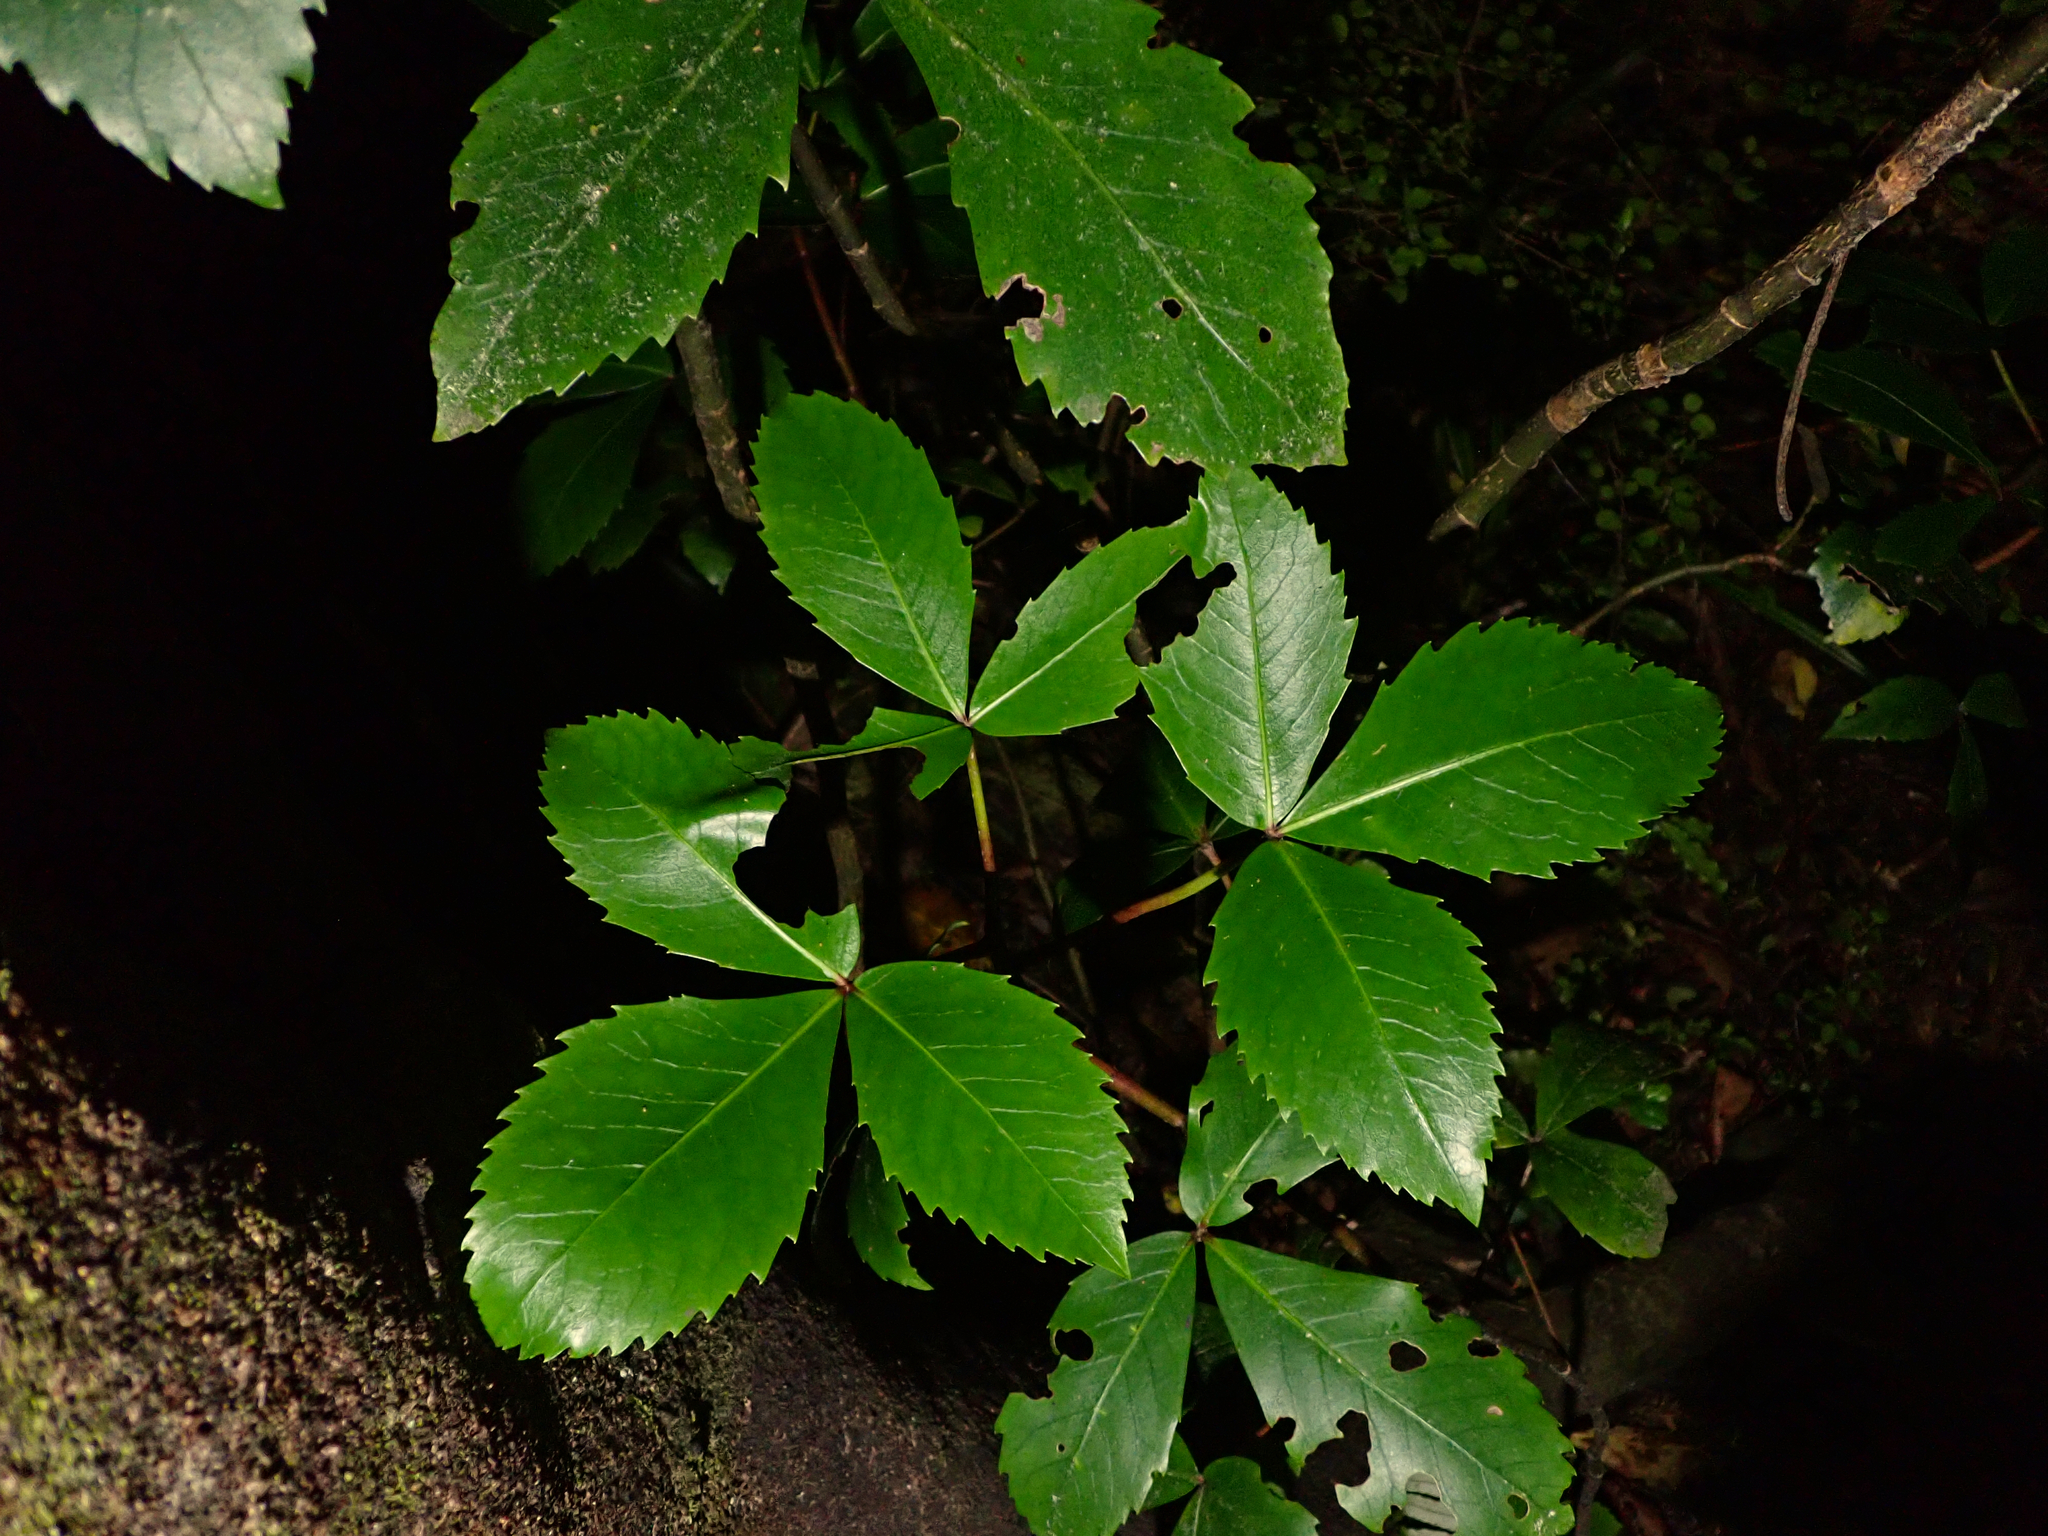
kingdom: Plantae
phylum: Tracheophyta
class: Magnoliopsida
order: Apiales
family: Araliaceae
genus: Neopanax
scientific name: Neopanax colensoi
